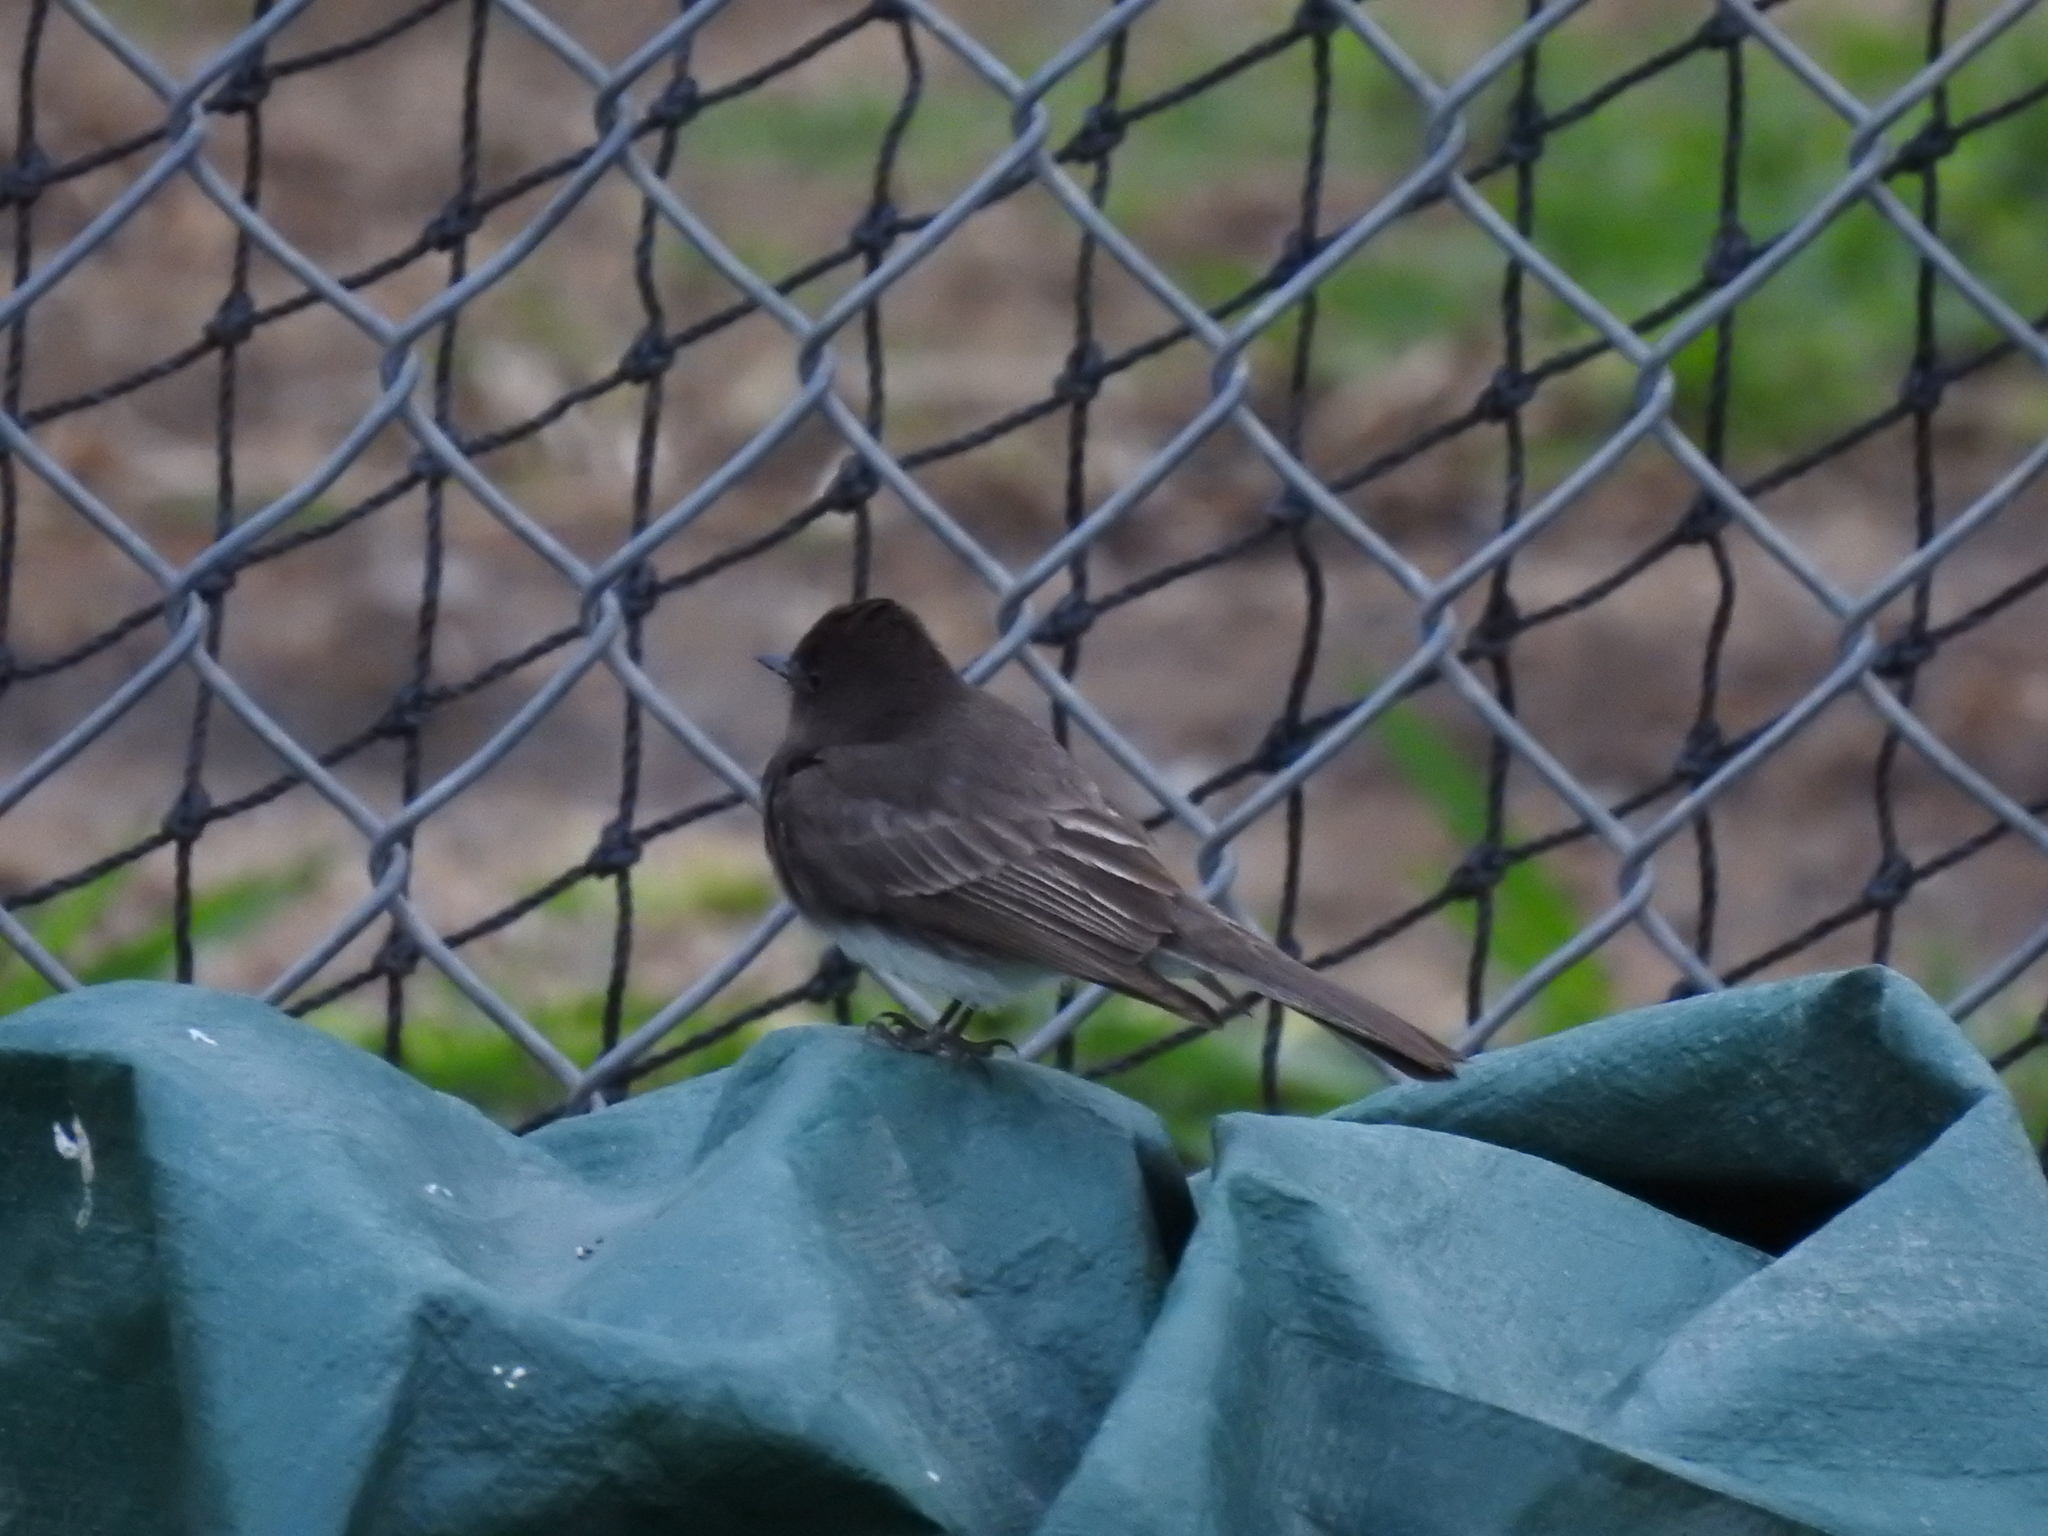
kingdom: Animalia
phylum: Chordata
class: Aves
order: Passeriformes
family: Tyrannidae
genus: Sayornis
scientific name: Sayornis nigricans
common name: Black phoebe
